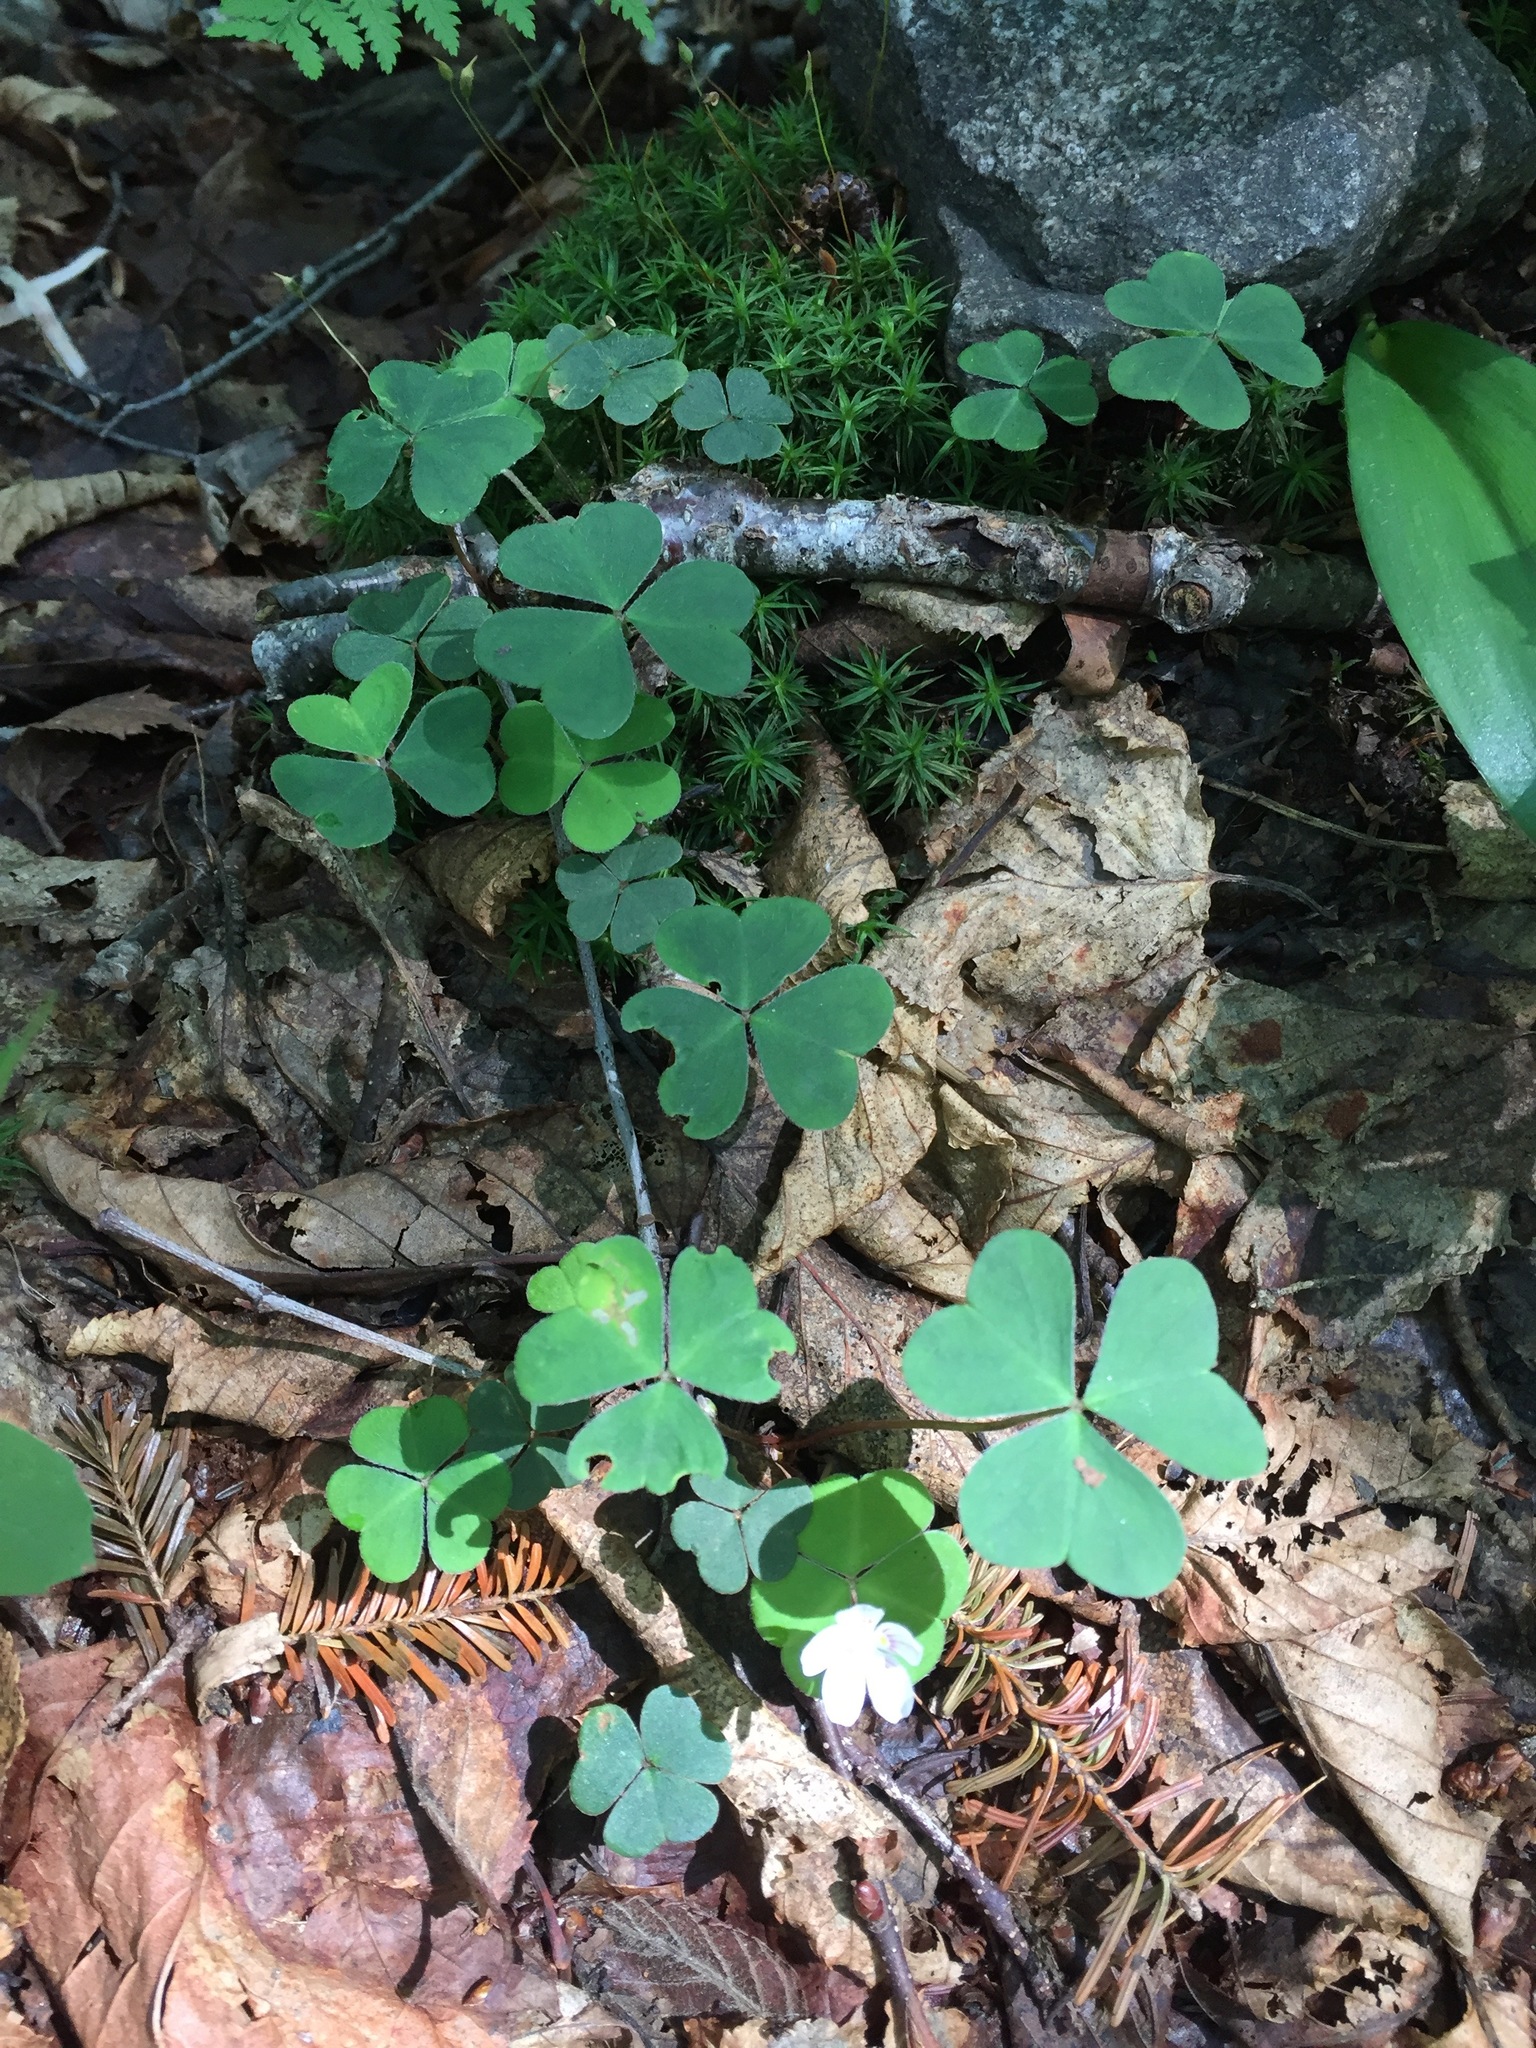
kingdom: Plantae
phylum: Tracheophyta
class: Magnoliopsida
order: Oxalidales
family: Oxalidaceae
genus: Oxalis
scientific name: Oxalis montana
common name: American wood-sorrel
